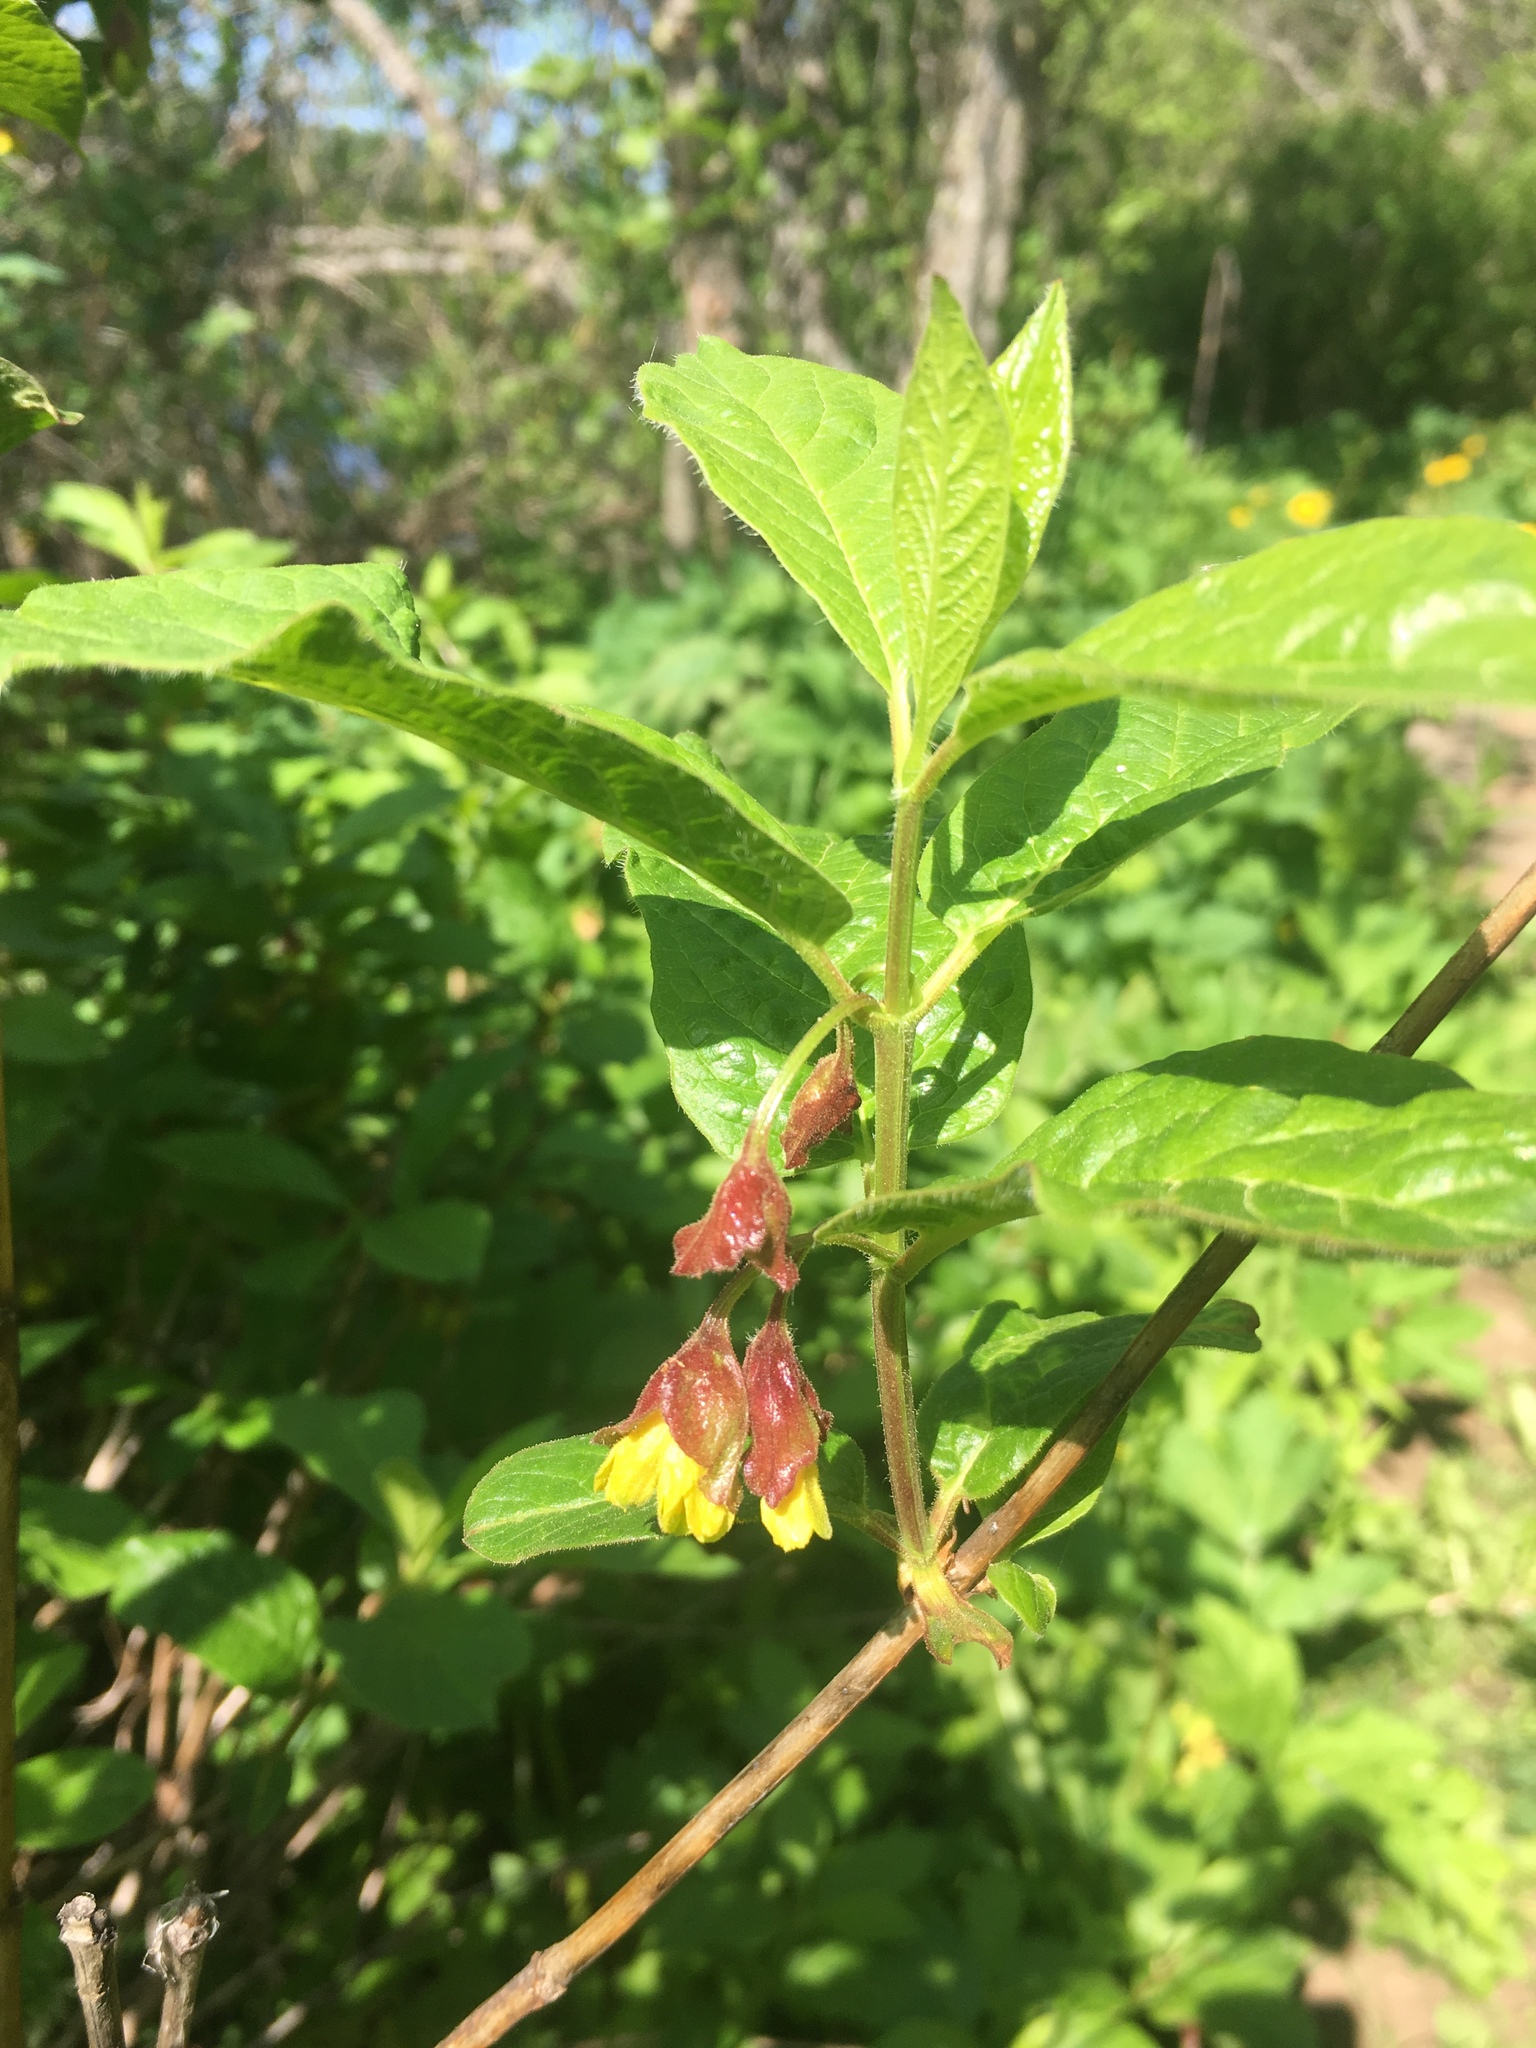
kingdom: Plantae
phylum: Tracheophyta
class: Magnoliopsida
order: Dipsacales
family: Caprifoliaceae
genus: Lonicera
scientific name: Lonicera involucrata
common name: Californian honeysuckle
